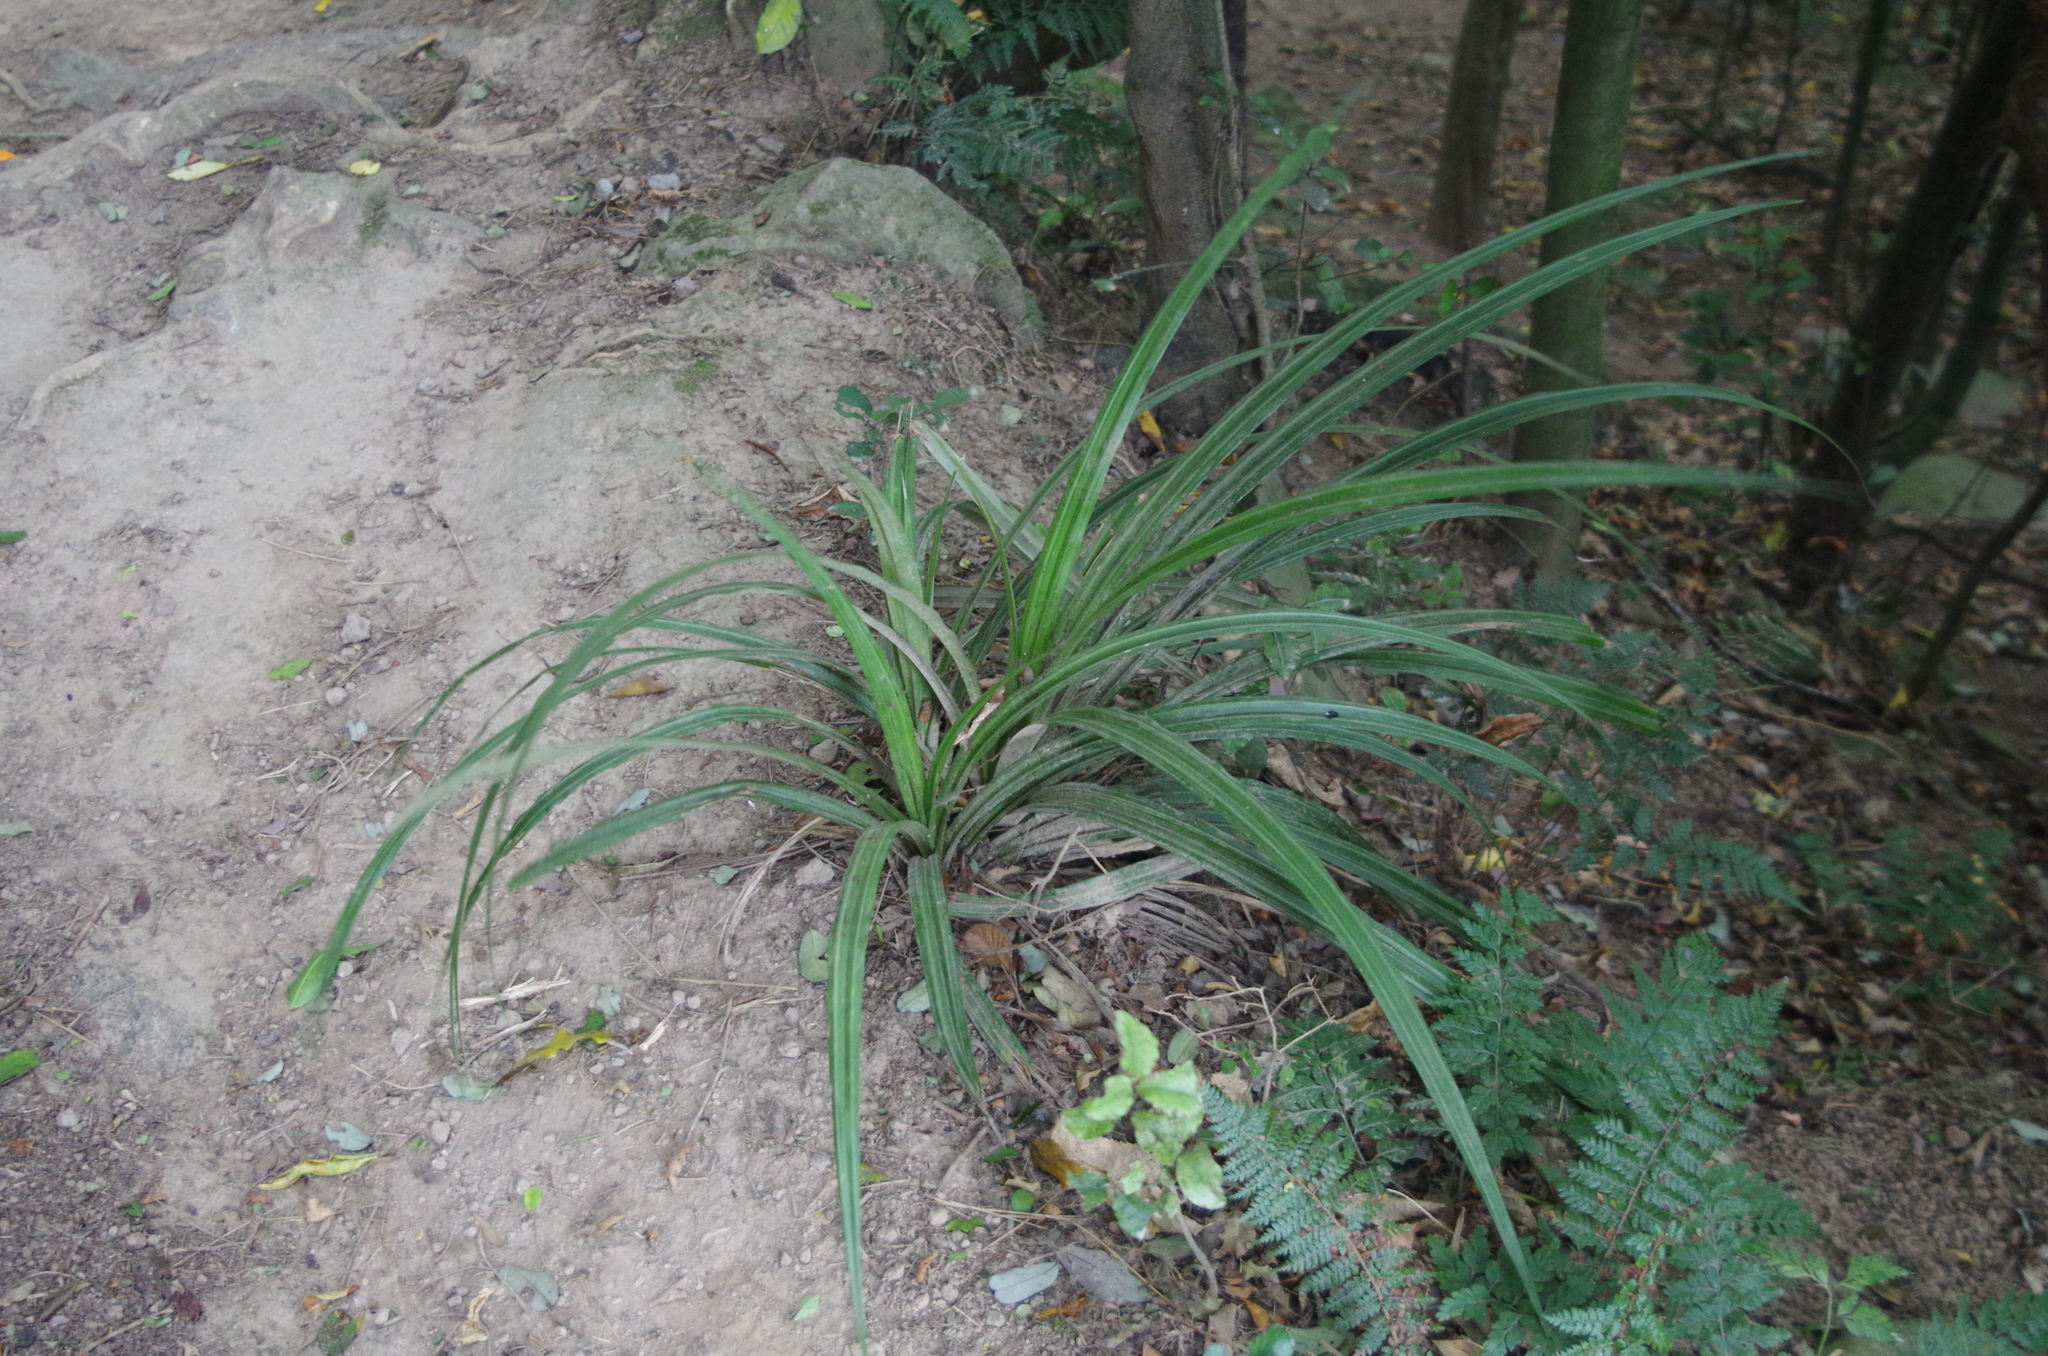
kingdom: Plantae
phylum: Tracheophyta
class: Liliopsida
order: Asparagales
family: Asteliaceae
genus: Astelia
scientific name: Astelia fragrans
